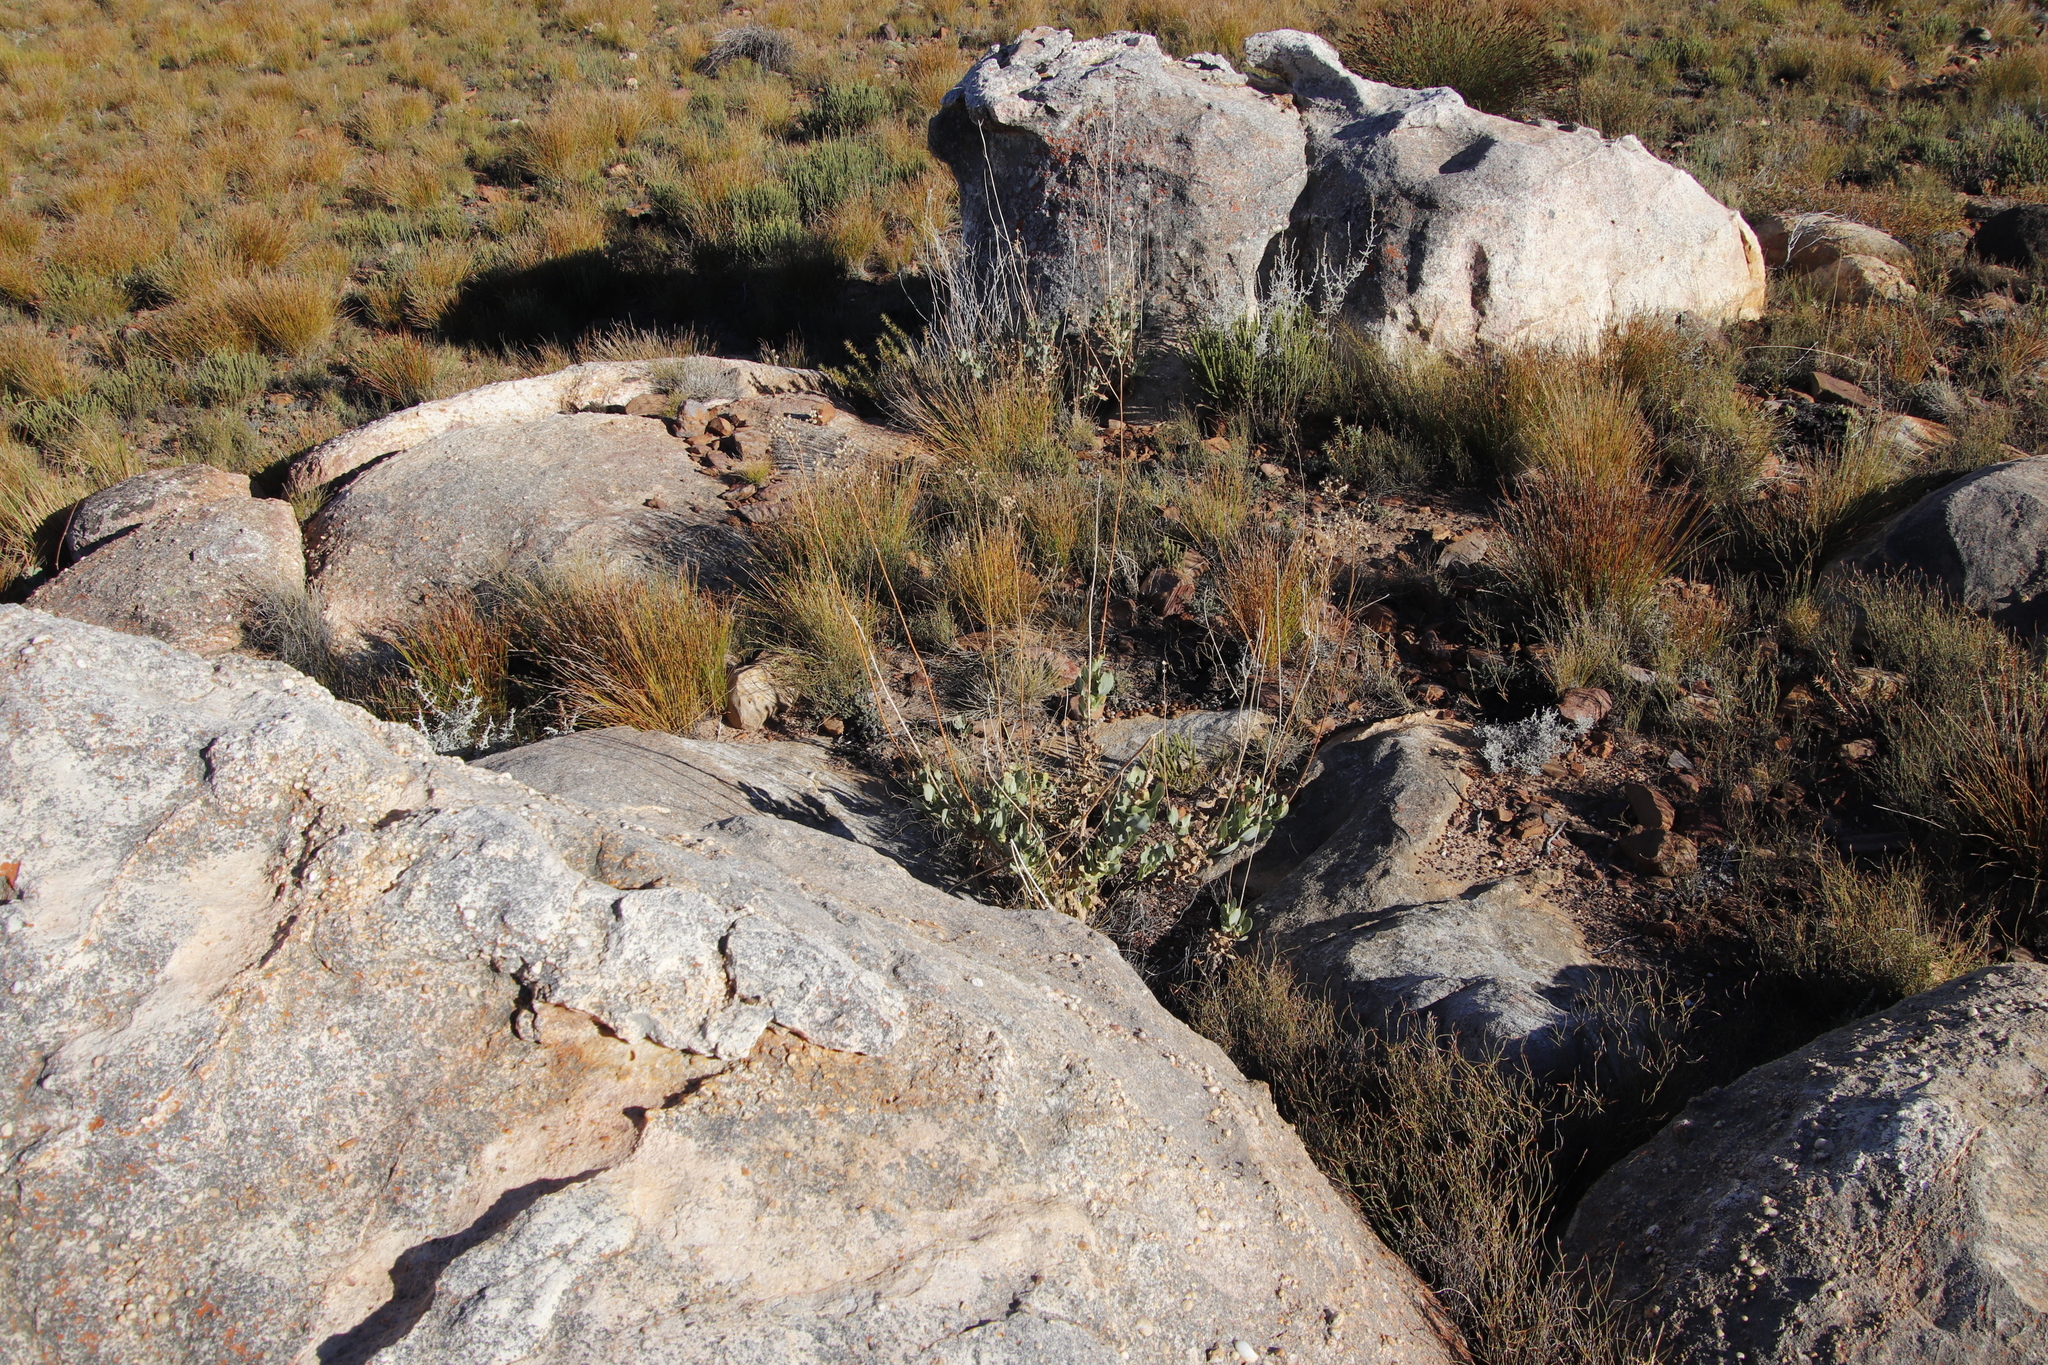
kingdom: Plantae
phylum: Tracheophyta
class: Magnoliopsida
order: Asterales
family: Asteraceae
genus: Othonna
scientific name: Othonna parviflora
